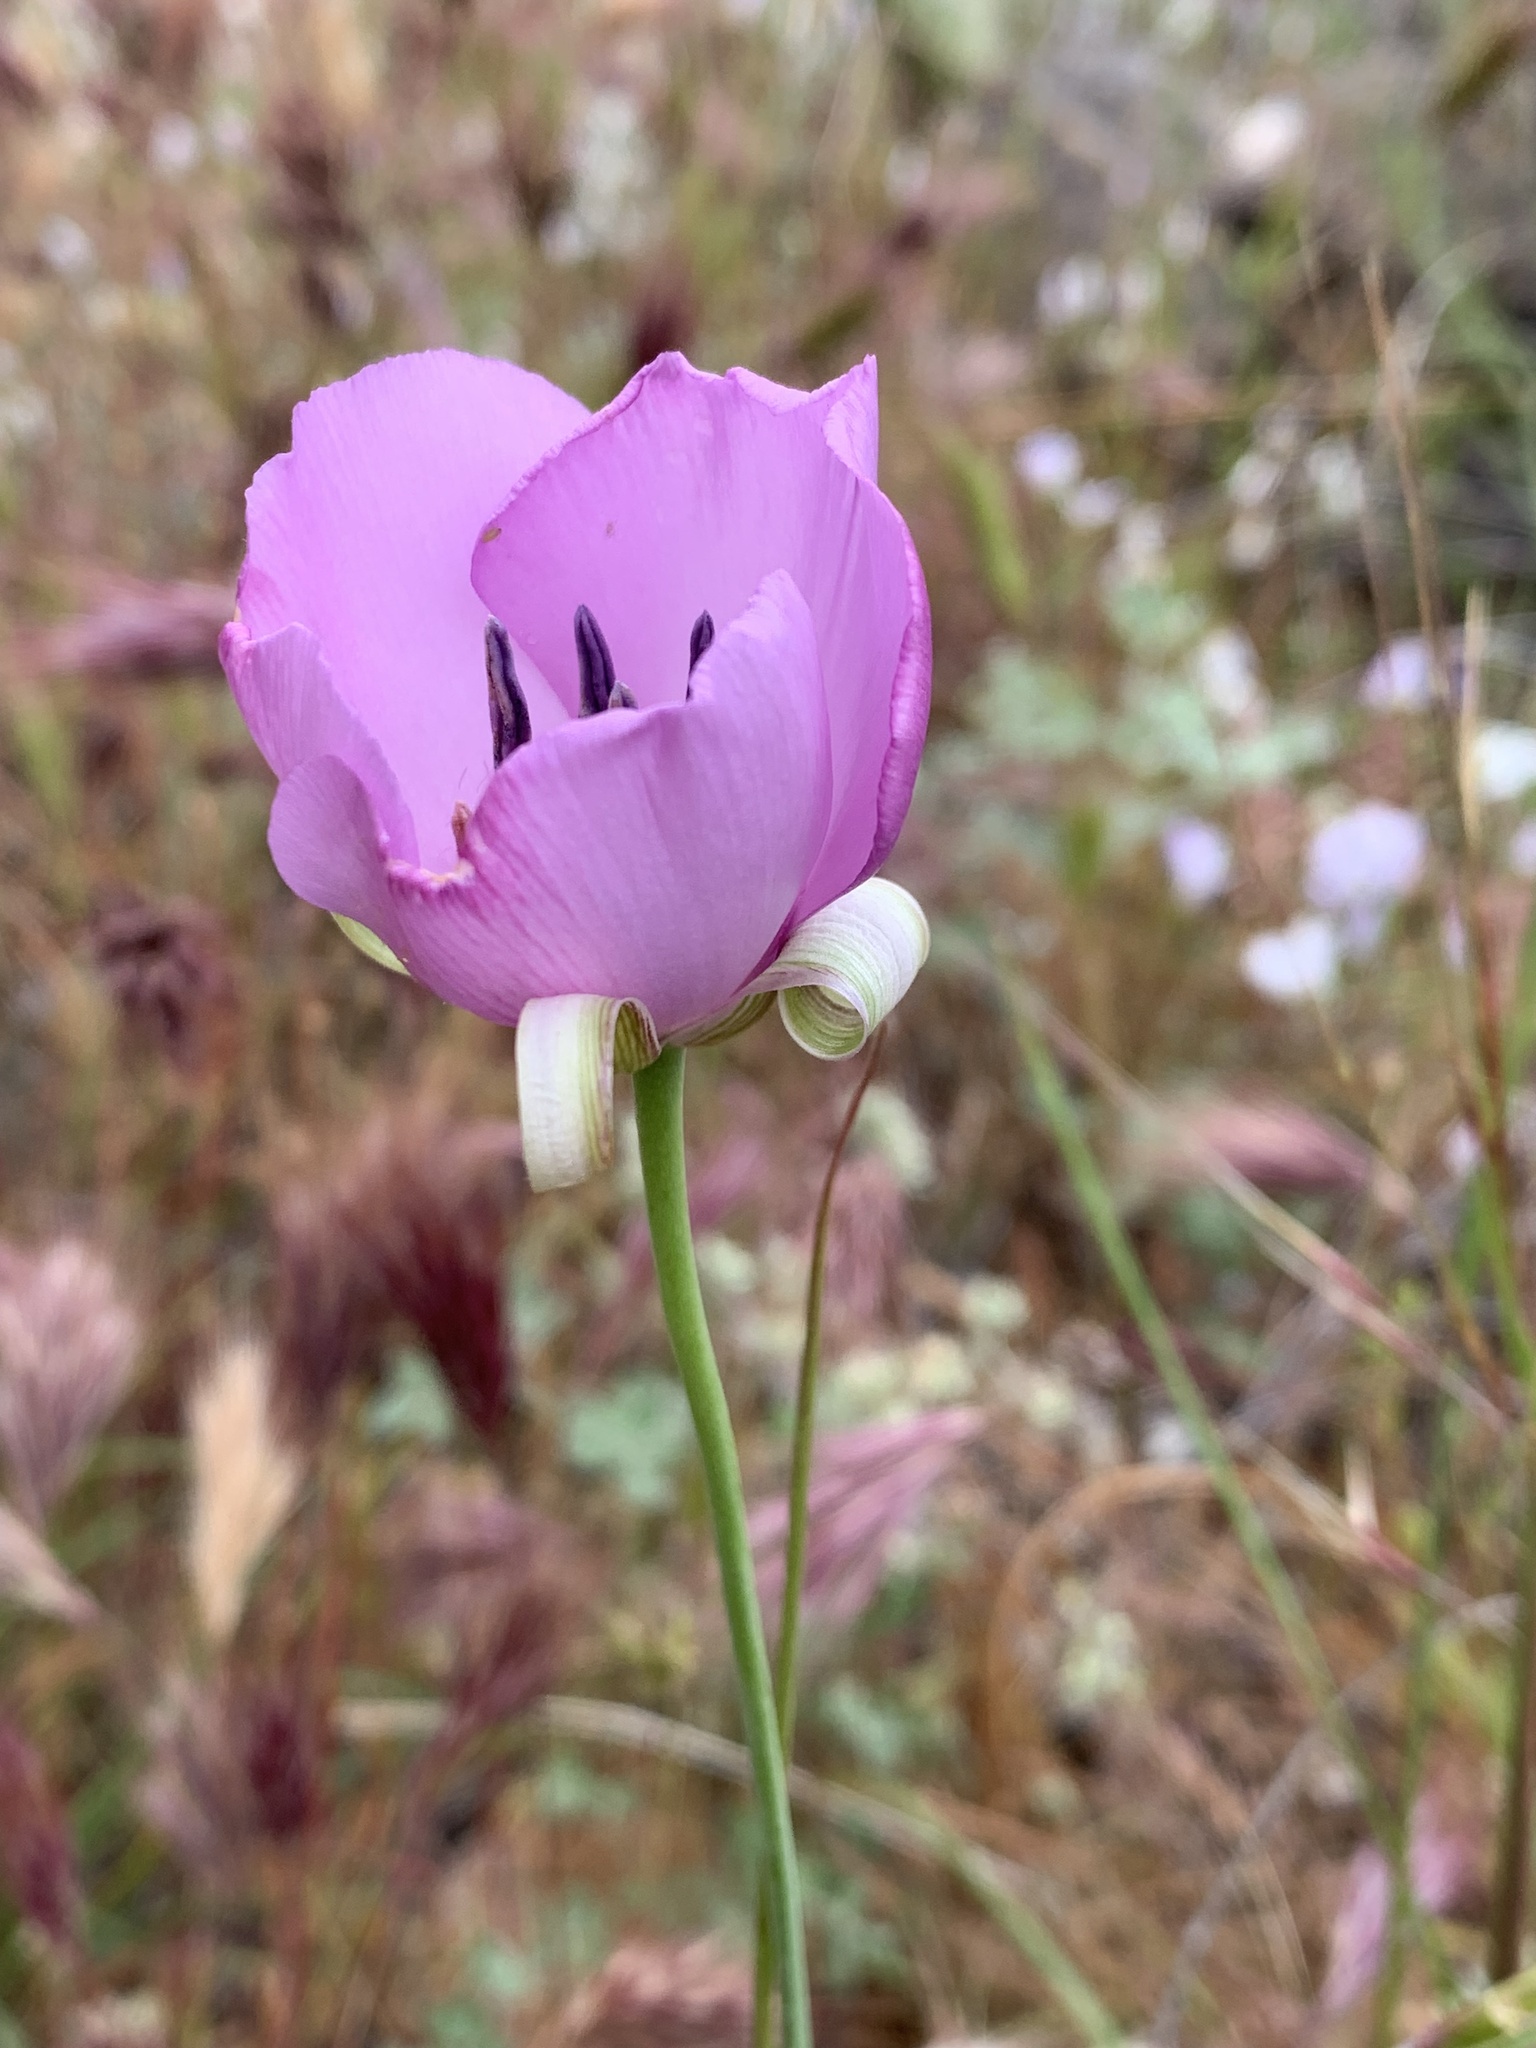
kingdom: Plantae
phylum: Tracheophyta
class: Liliopsida
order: Liliales
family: Liliaceae
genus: Calochortus
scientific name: Calochortus splendens
